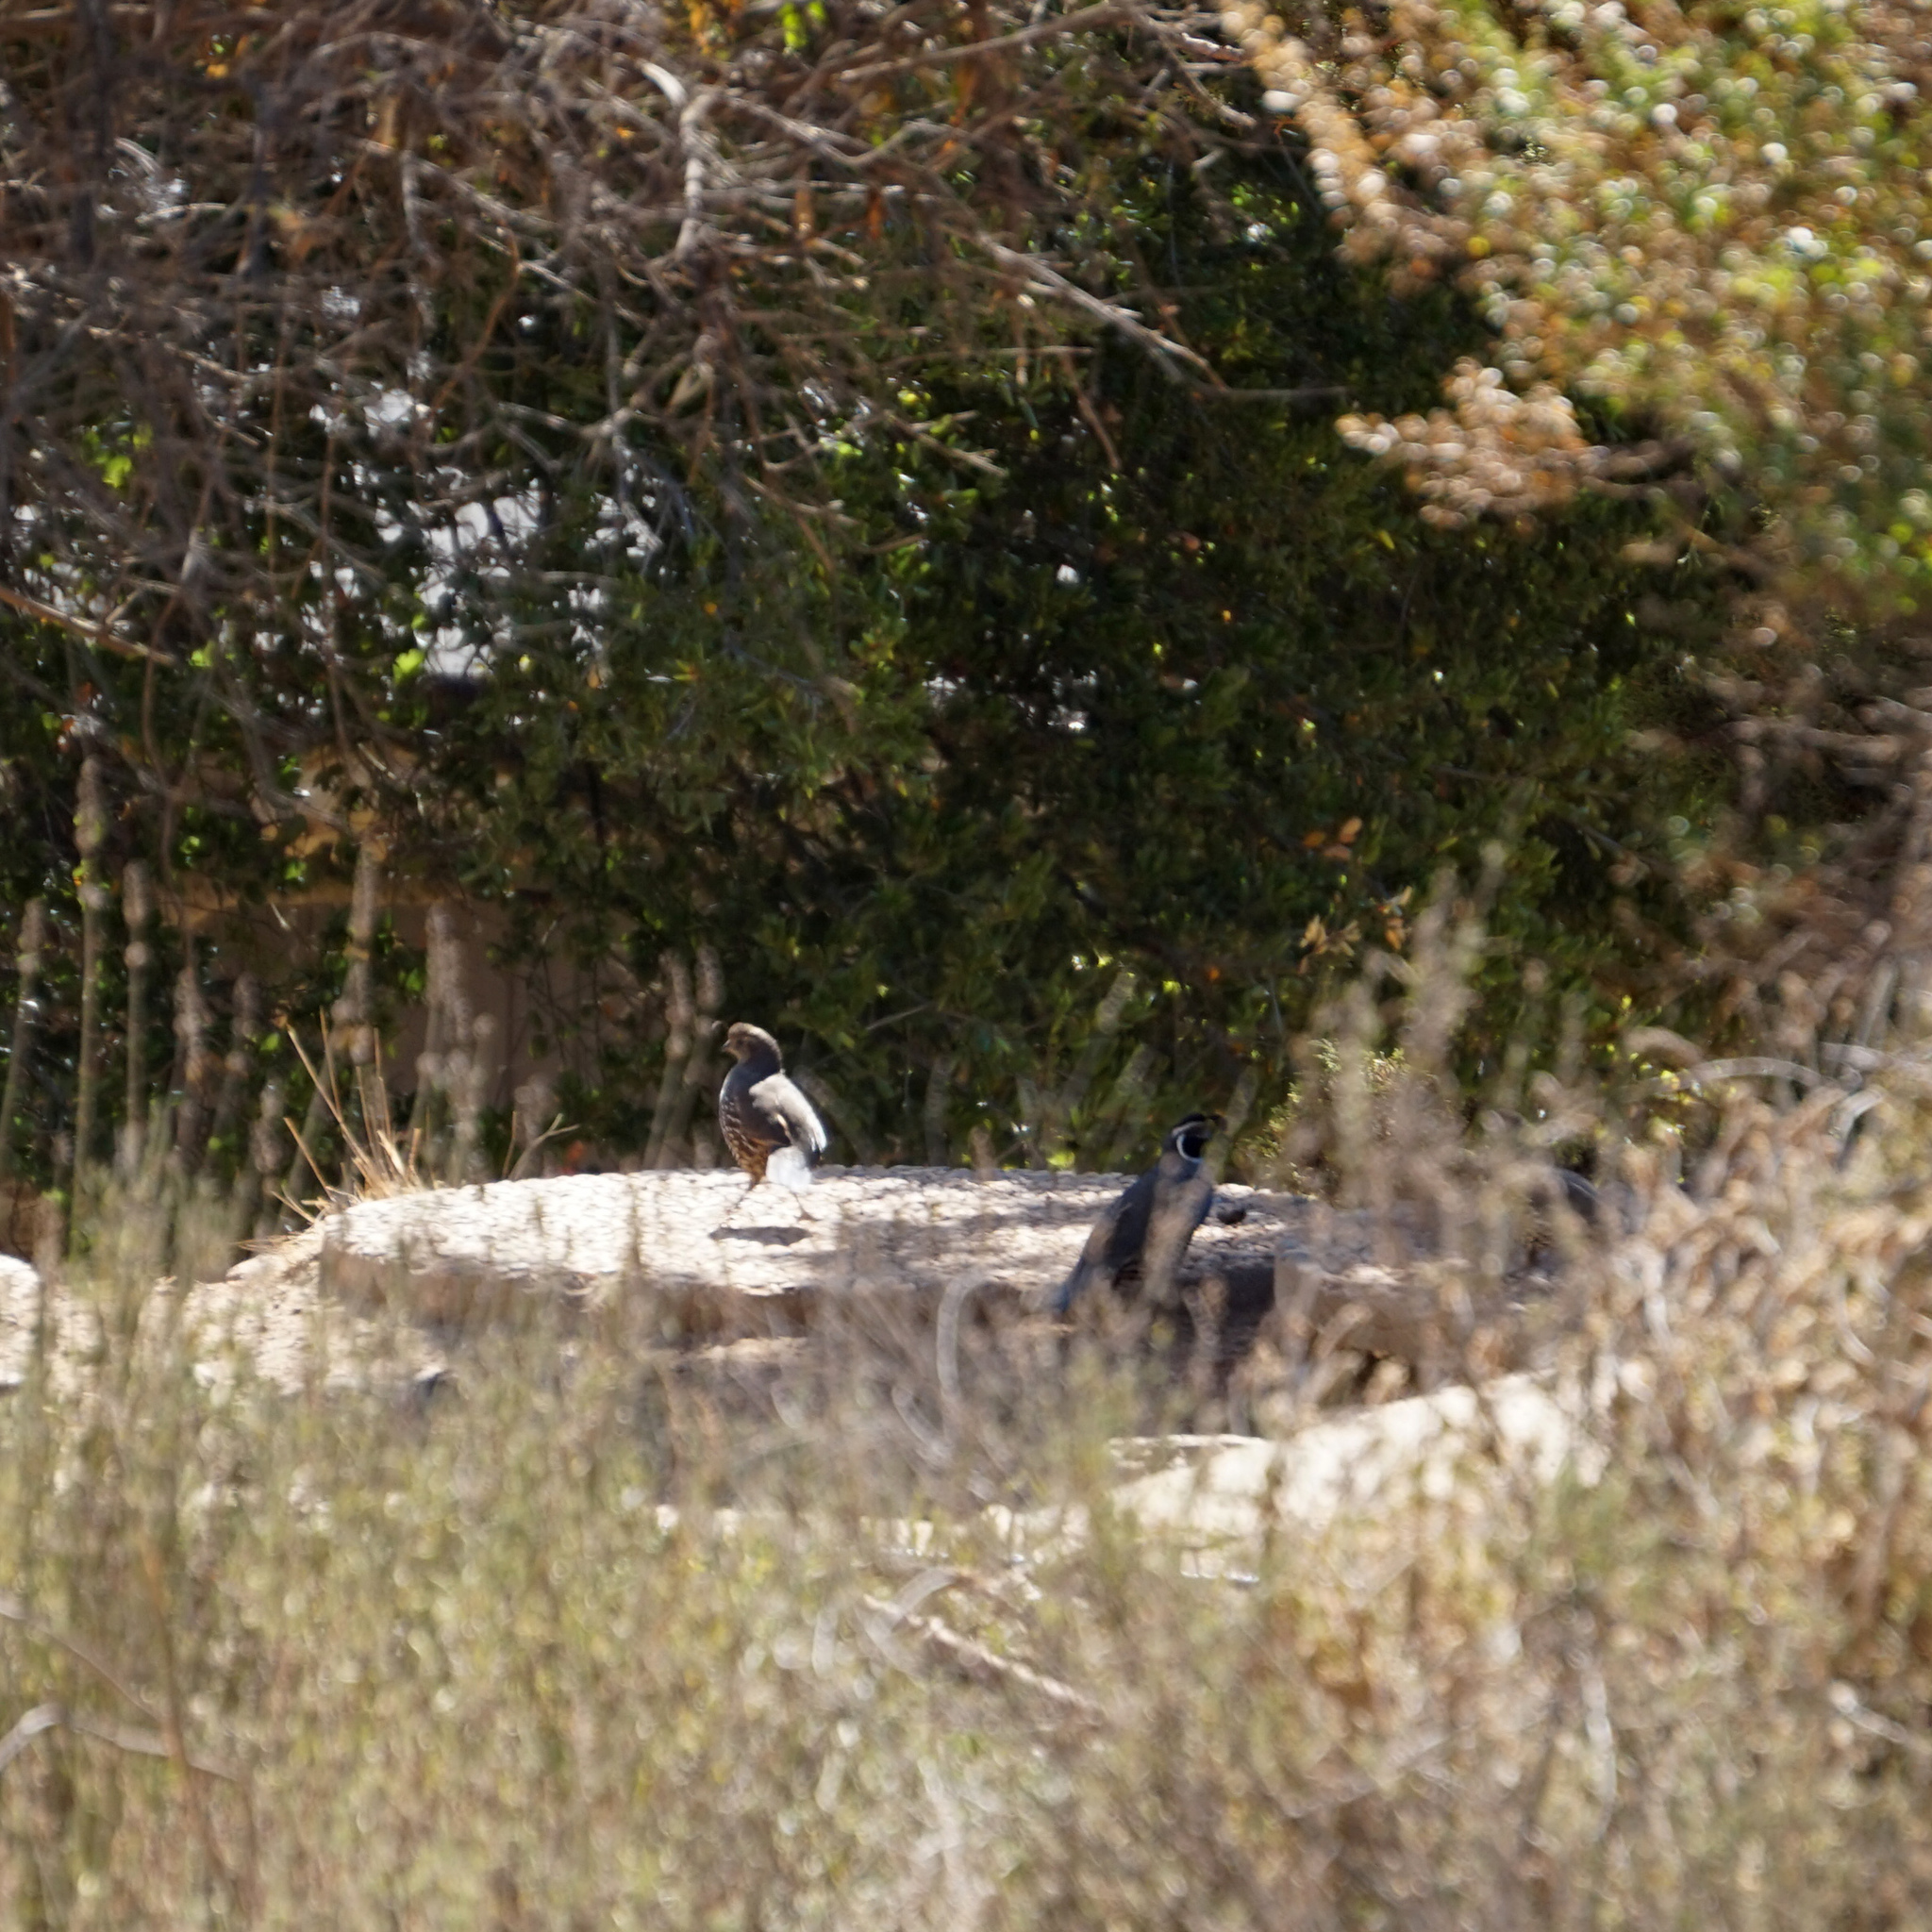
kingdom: Animalia
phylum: Chordata
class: Aves
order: Galliformes
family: Odontophoridae
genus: Callipepla
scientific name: Callipepla californica
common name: California quail
